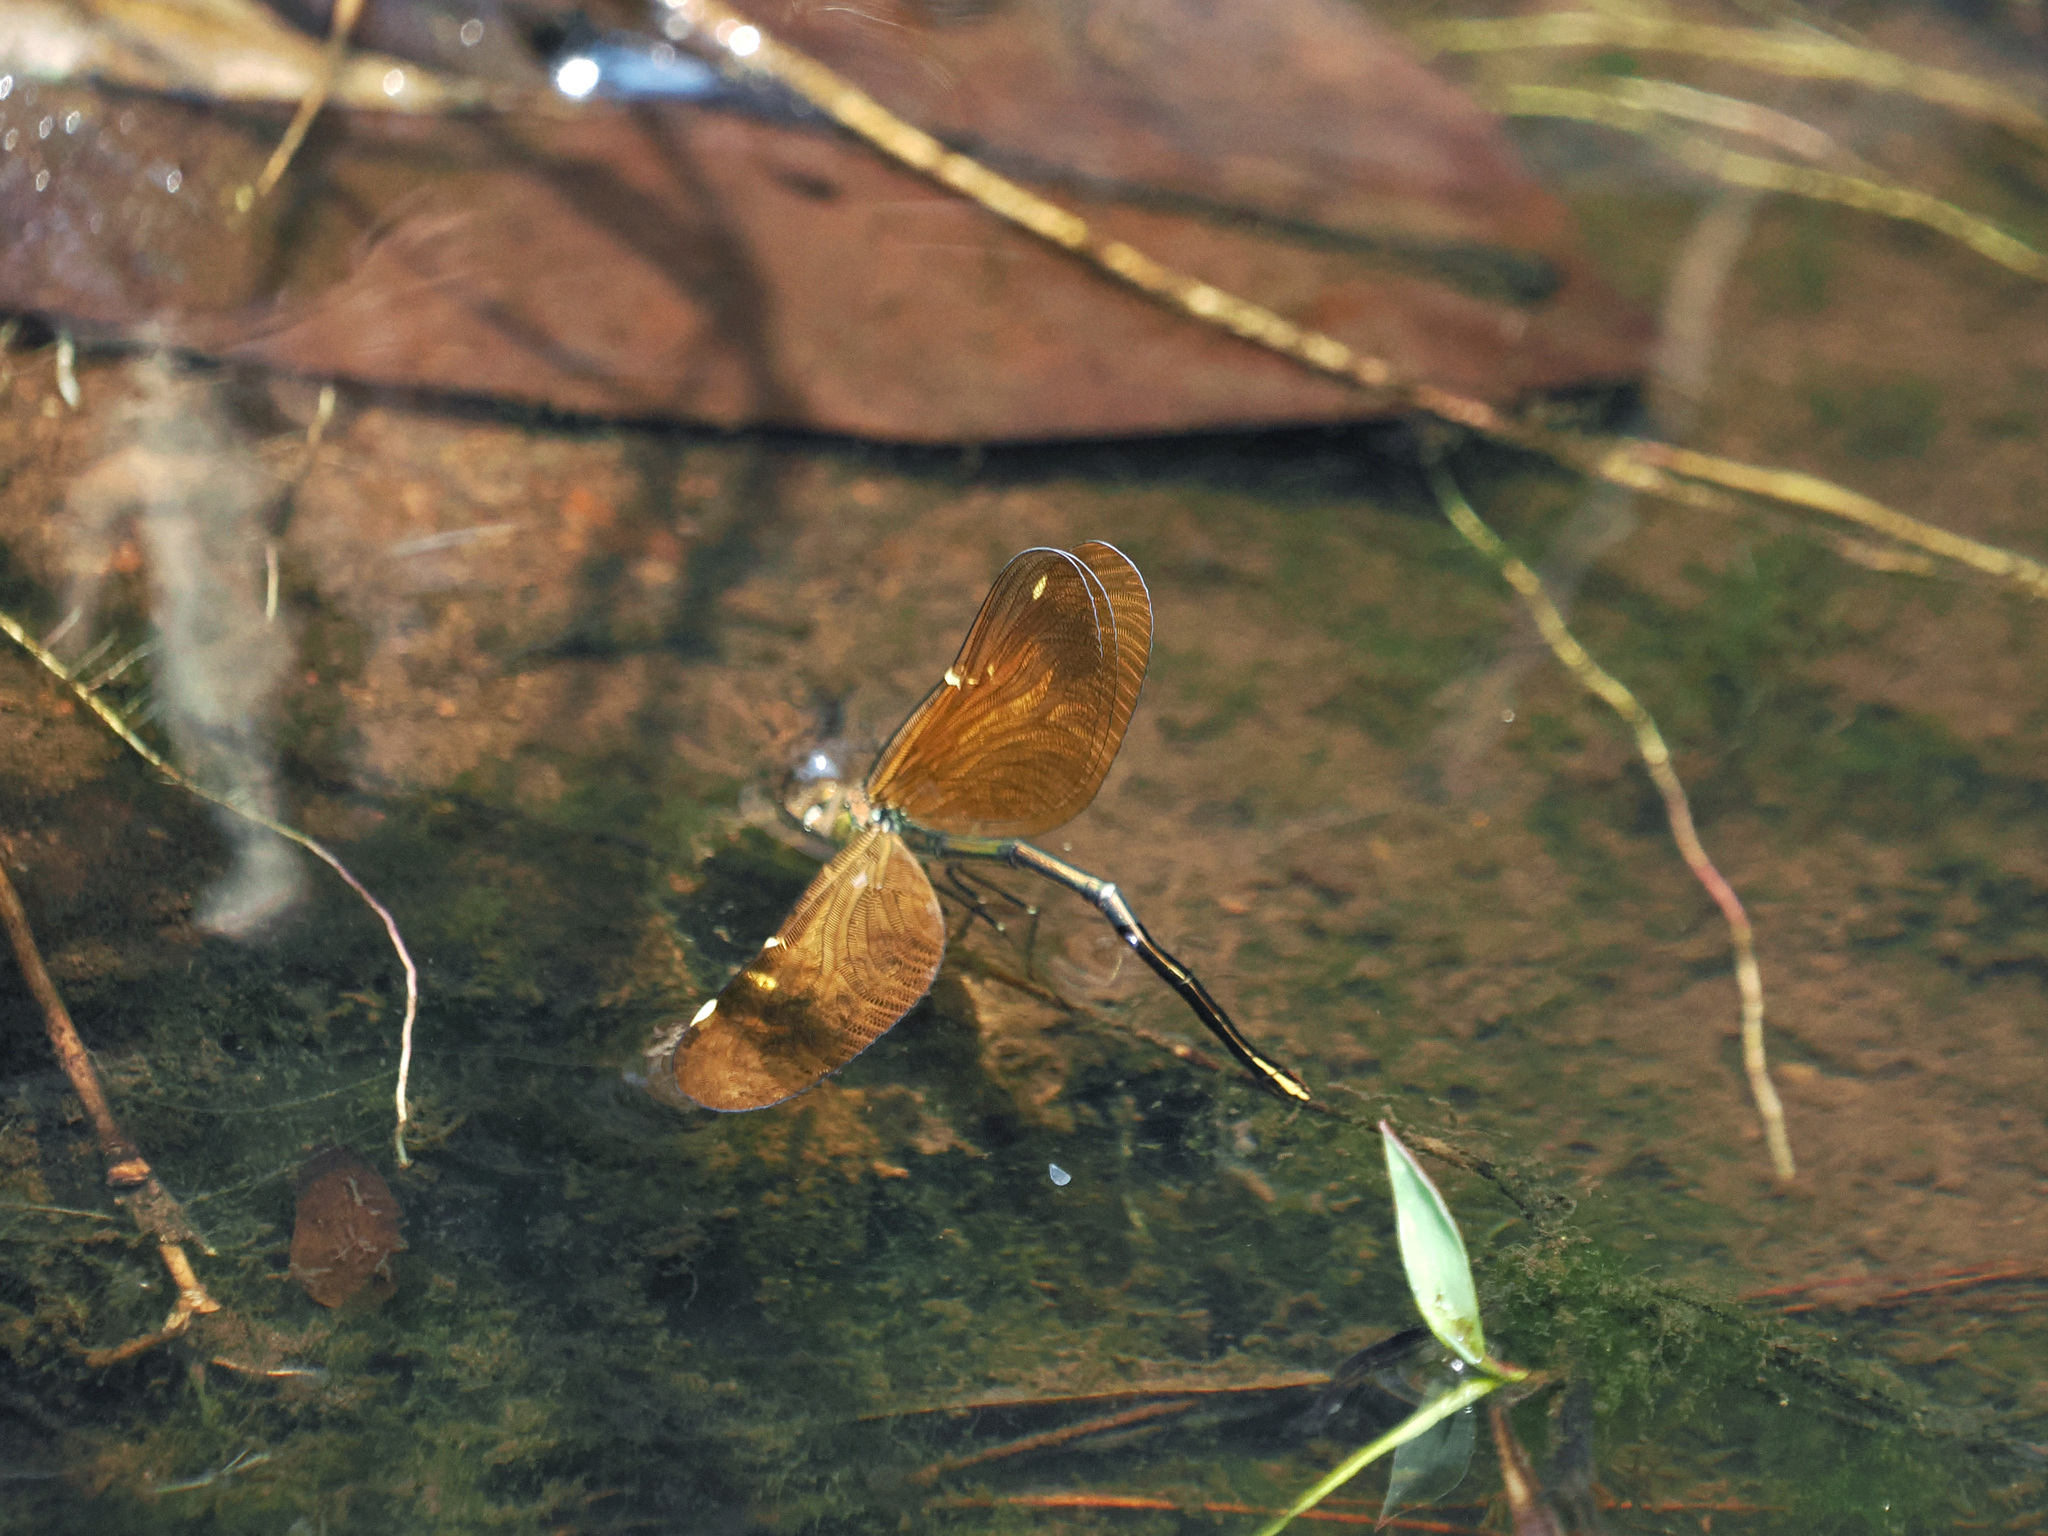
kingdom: Animalia
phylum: Arthropoda
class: Insecta
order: Odonata
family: Calopterygidae
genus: Neurobasis
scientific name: Neurobasis chinensis
